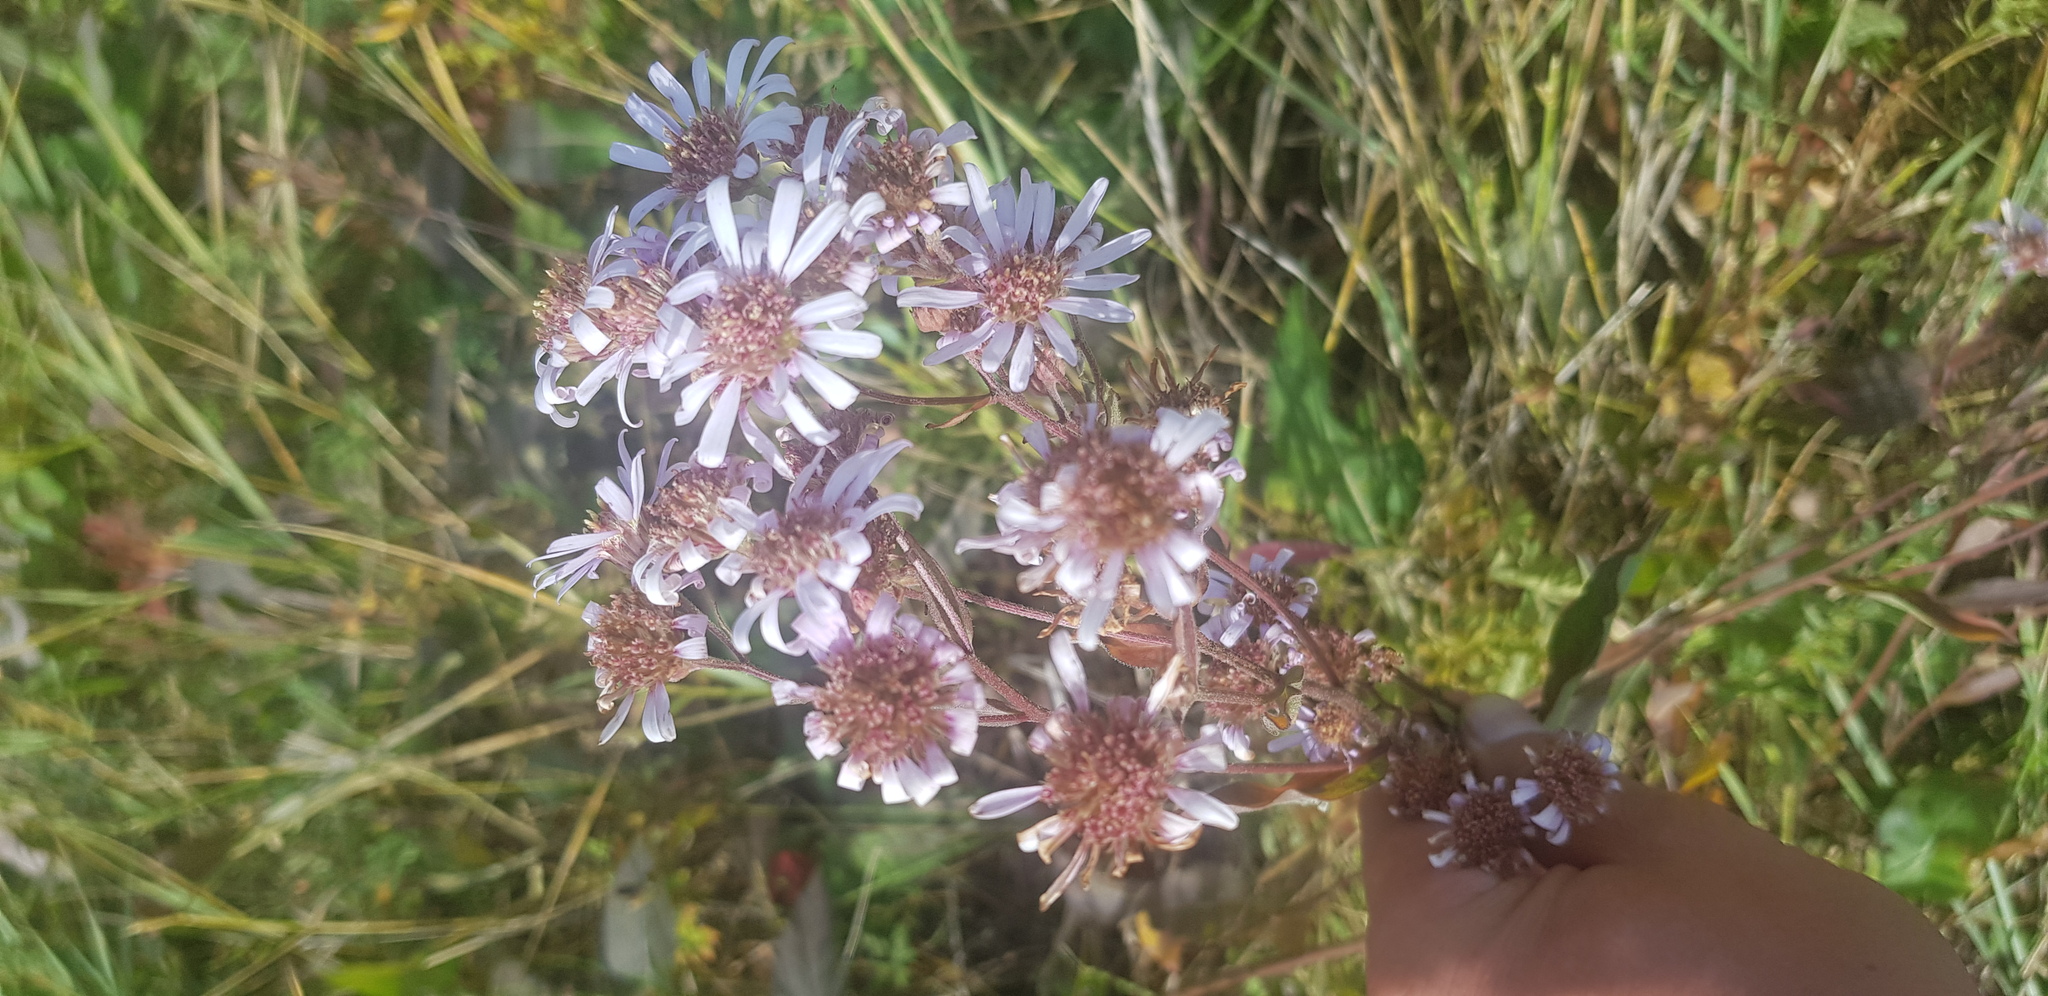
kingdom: Plantae
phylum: Tracheophyta
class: Magnoliopsida
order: Asterales
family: Asteraceae
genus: Aster
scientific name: Aster tataricus
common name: Tatarian aster
